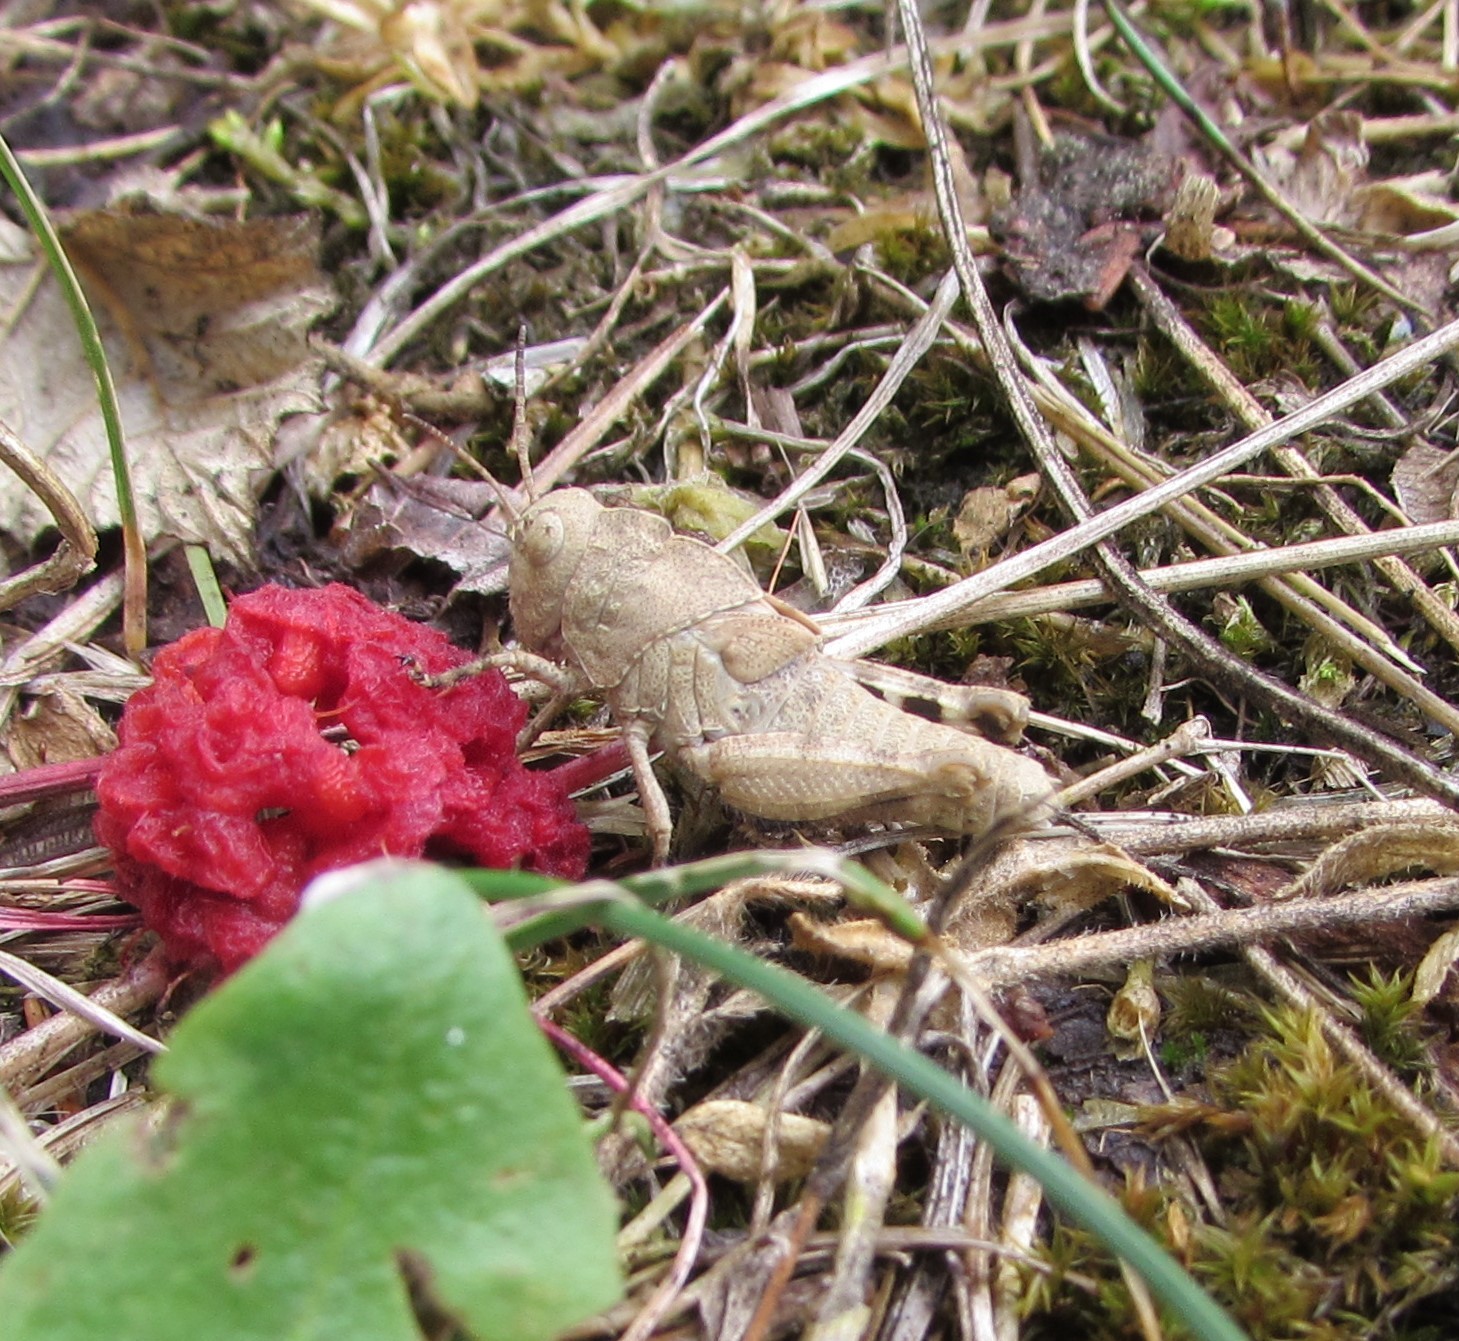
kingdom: Animalia
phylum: Arthropoda
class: Insecta
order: Orthoptera
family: Acrididae
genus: Dissosteira
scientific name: Dissosteira carolina
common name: Carolina grasshopper
